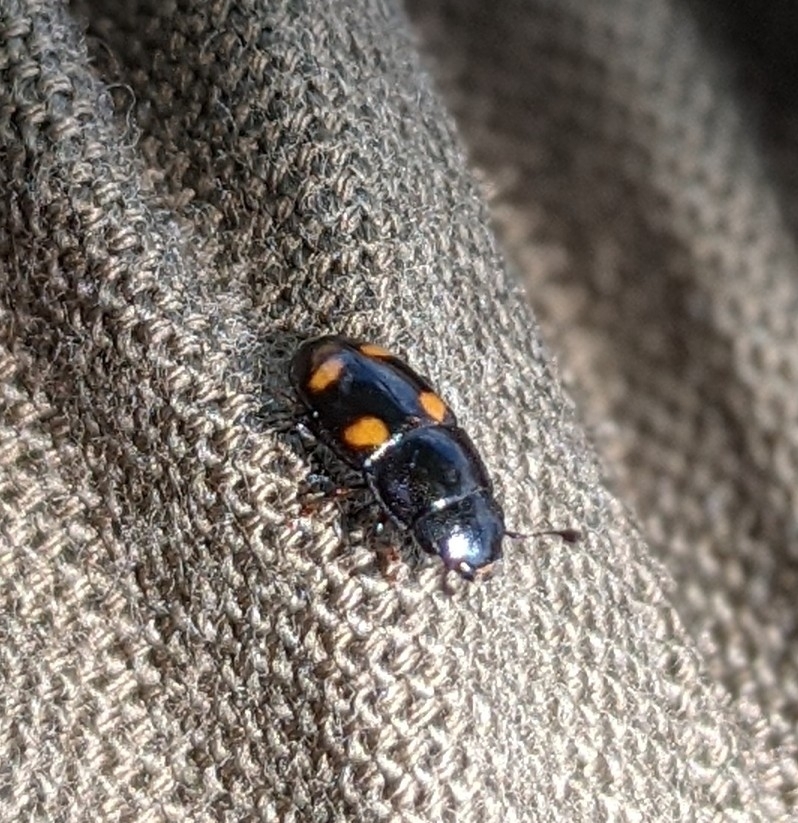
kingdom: Animalia
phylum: Arthropoda
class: Insecta
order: Coleoptera
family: Nitidulidae
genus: Glischrochilus
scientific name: Glischrochilus hortensis
